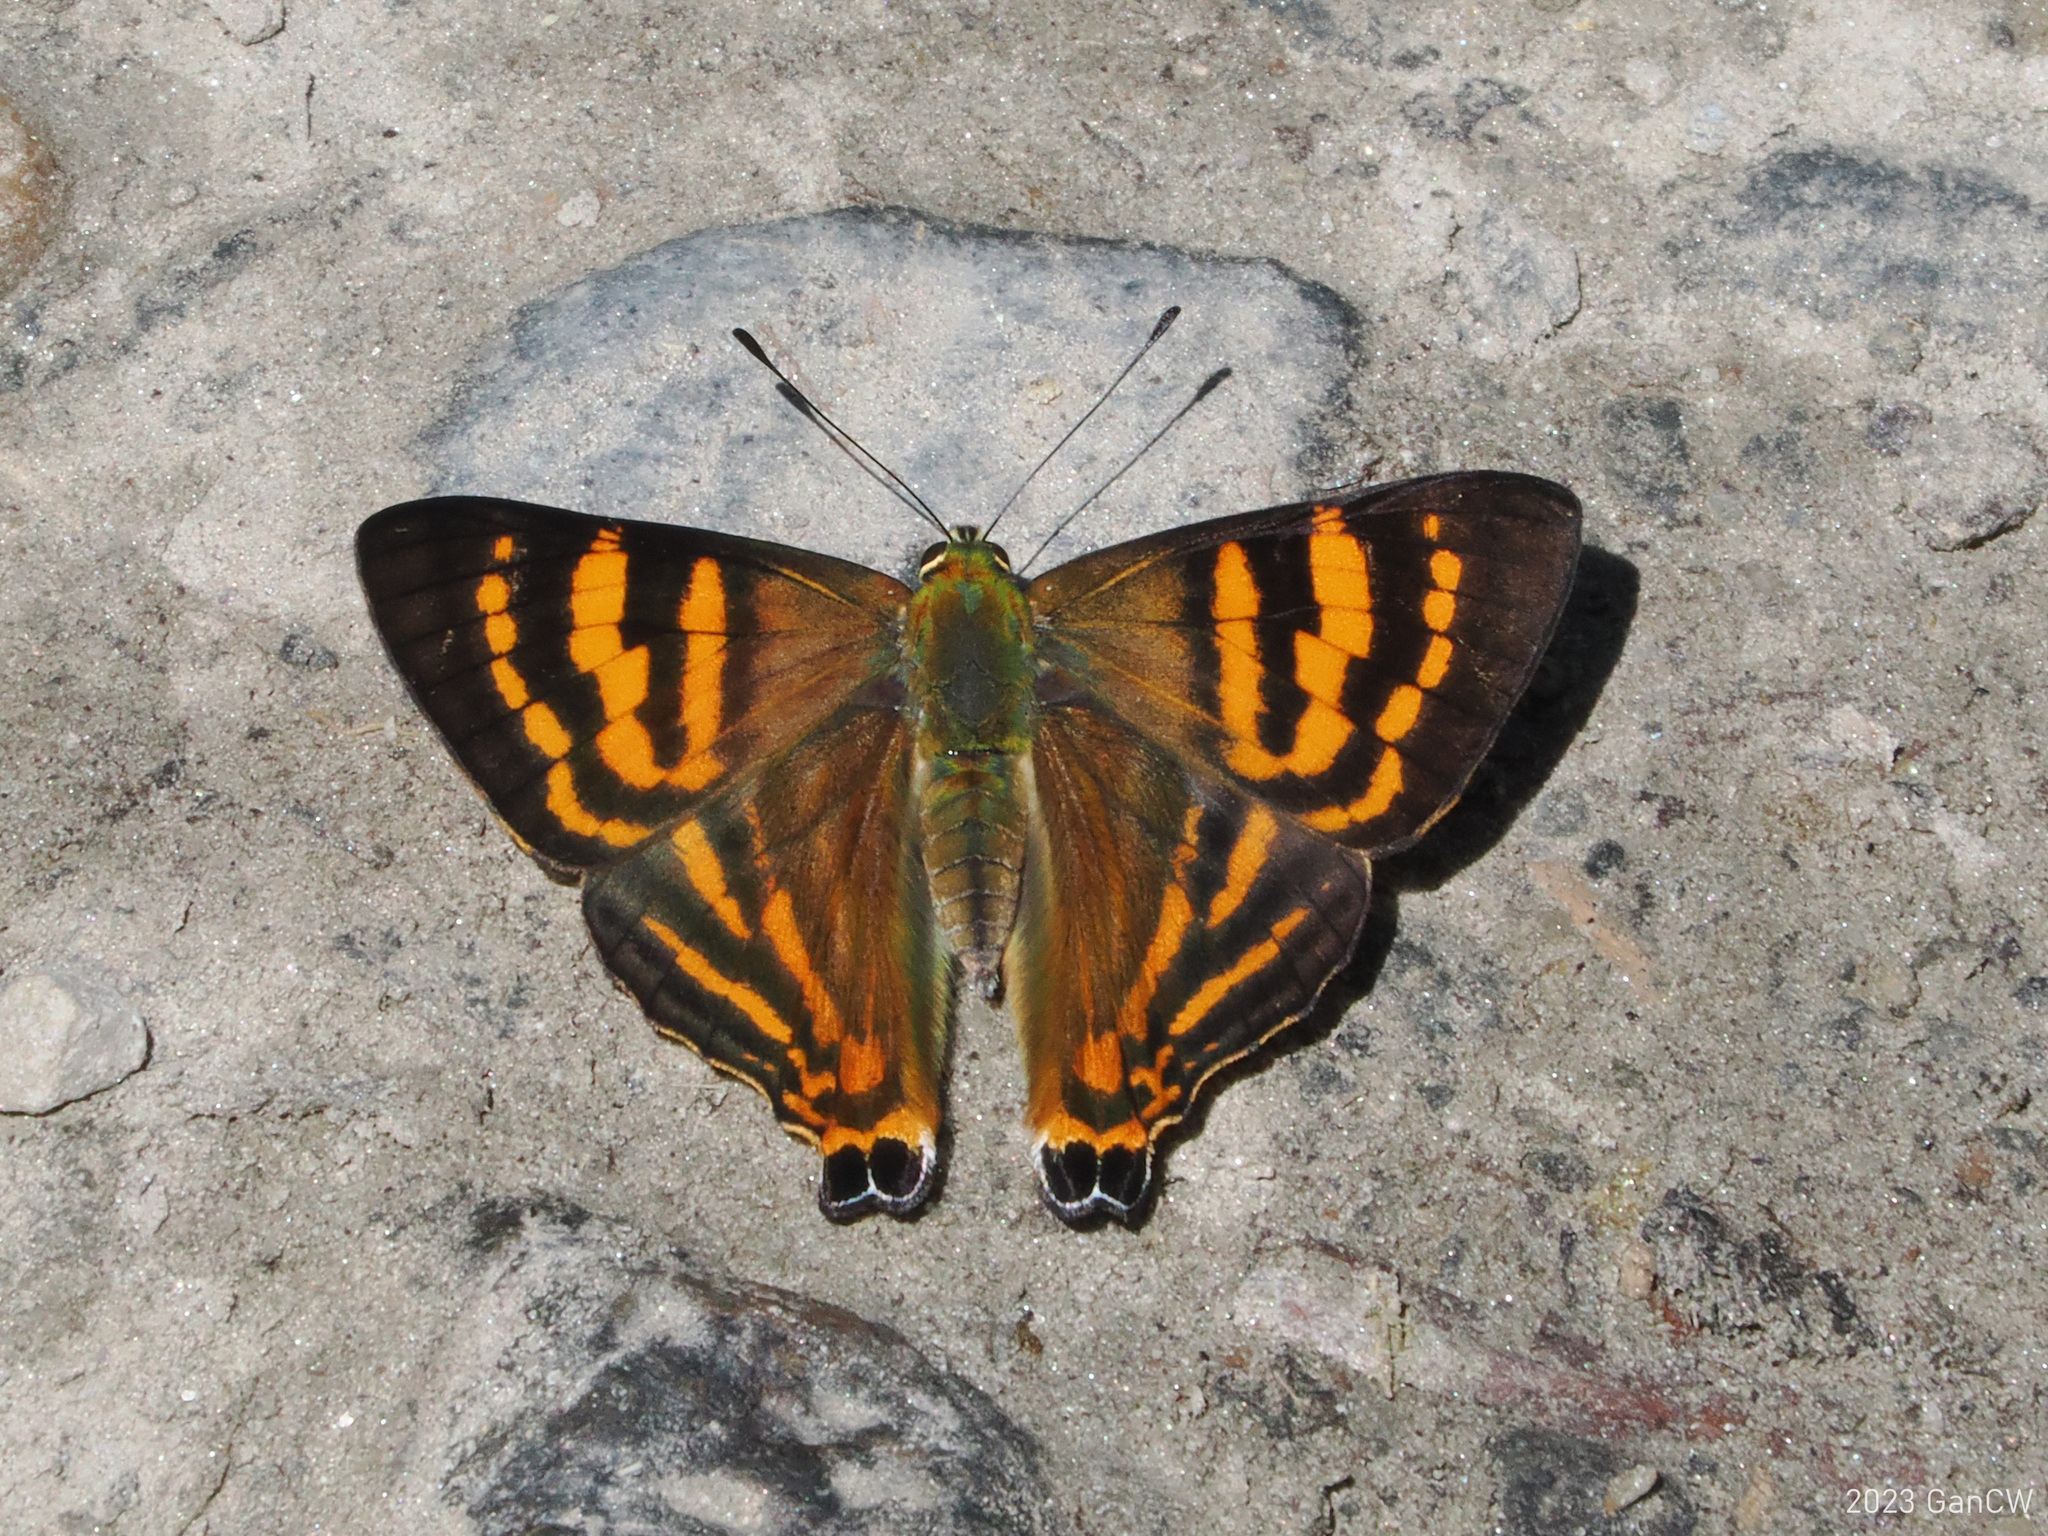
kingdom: Animalia
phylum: Arthropoda
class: Insecta
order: Lepidoptera
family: Lycaenidae
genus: Dodona
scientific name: Dodona adonira
